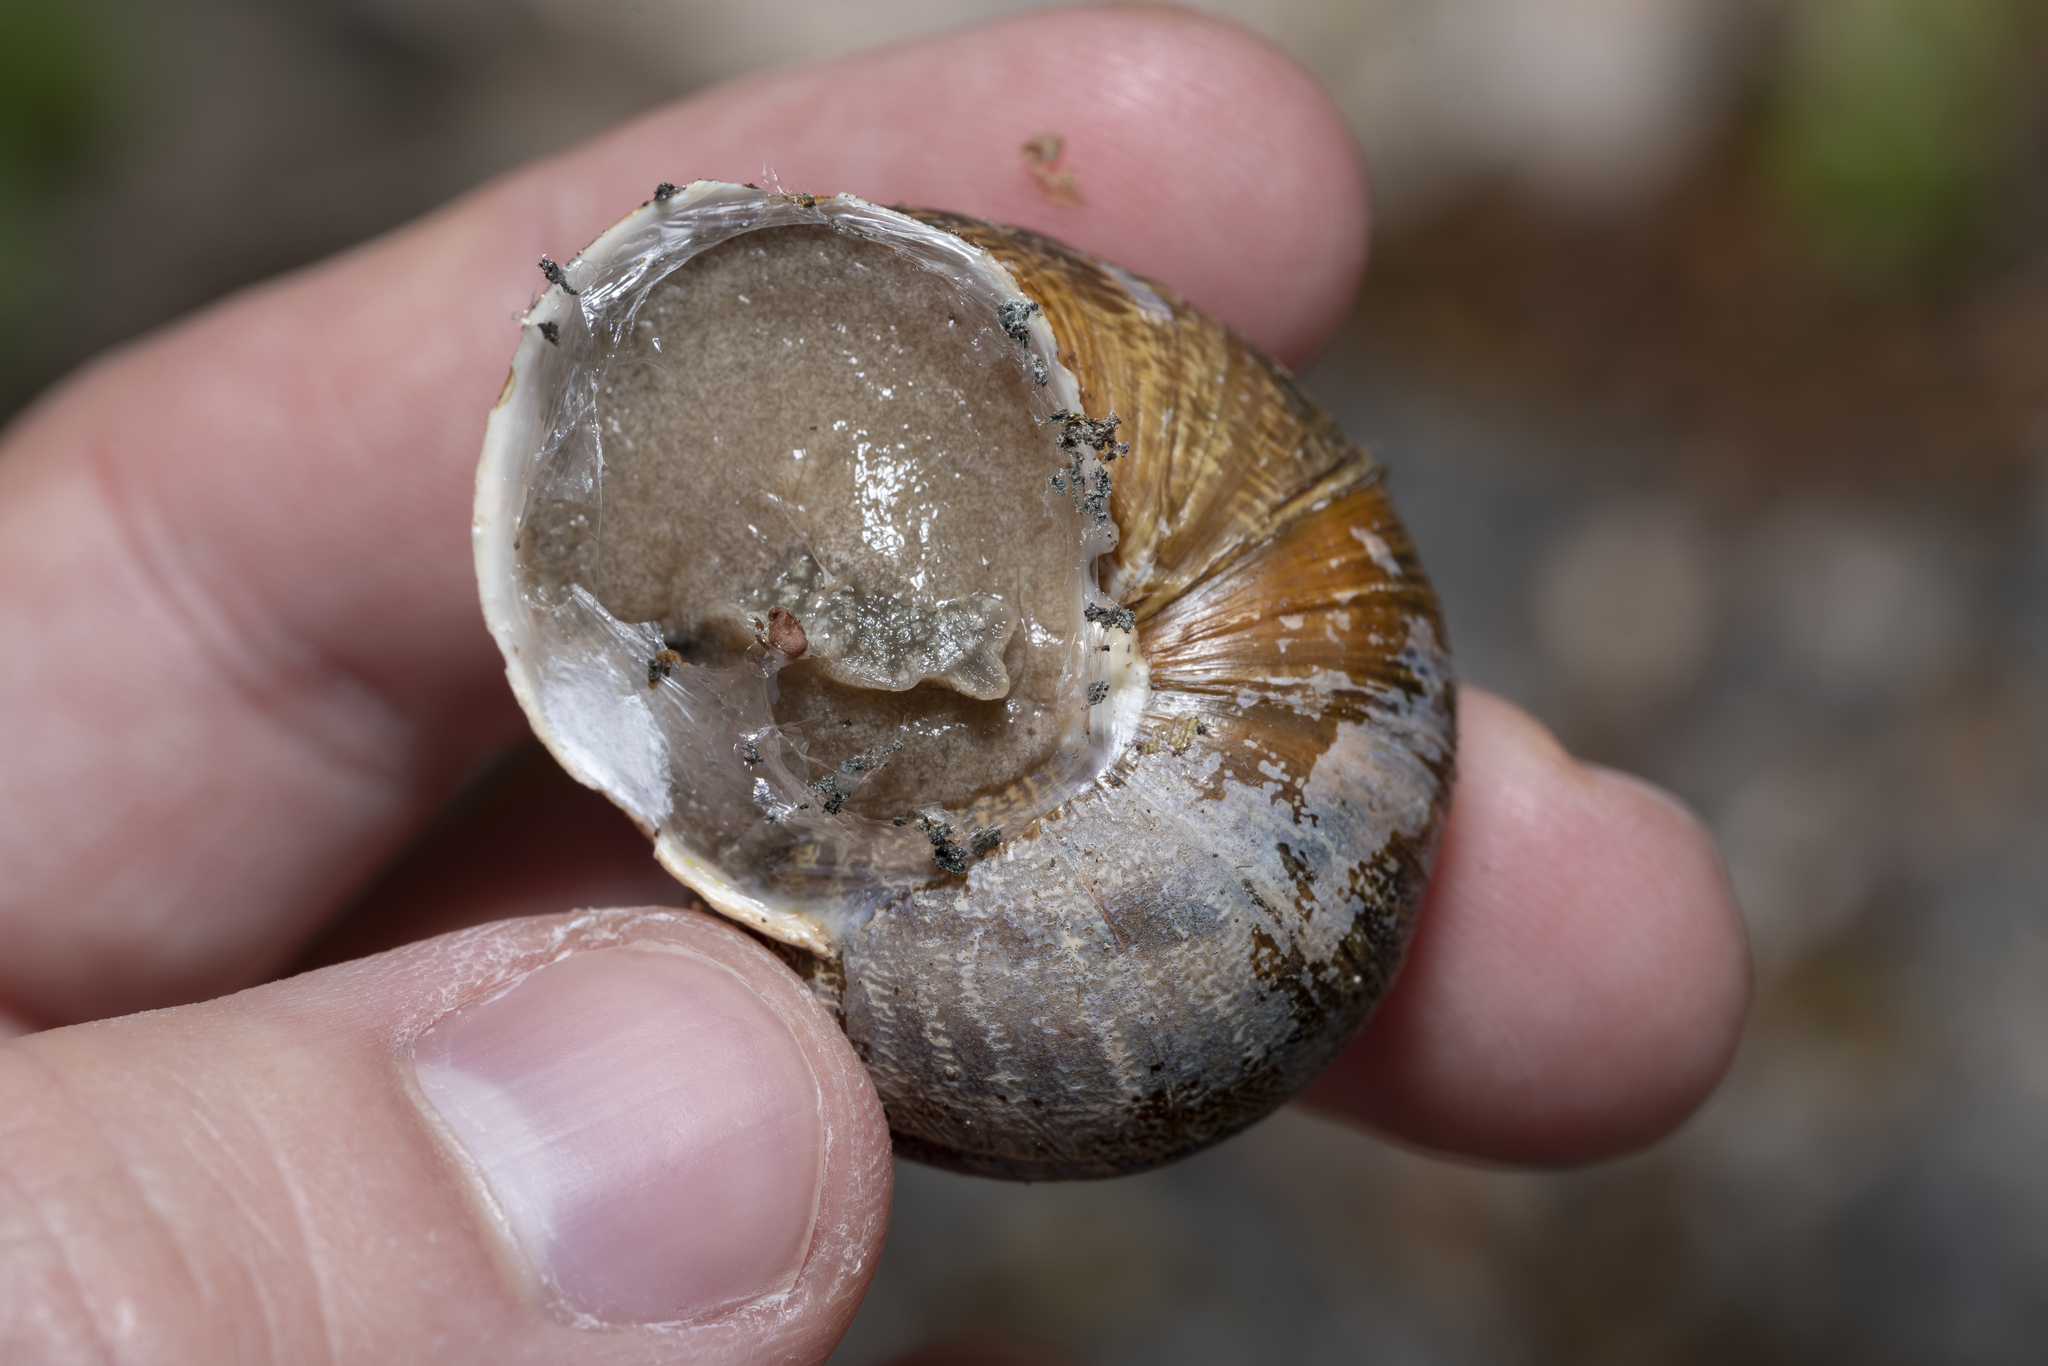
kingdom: Animalia
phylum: Mollusca
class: Gastropoda
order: Stylommatophora
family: Helicidae
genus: Cornu
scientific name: Cornu aspersum
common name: Brown garden snail
